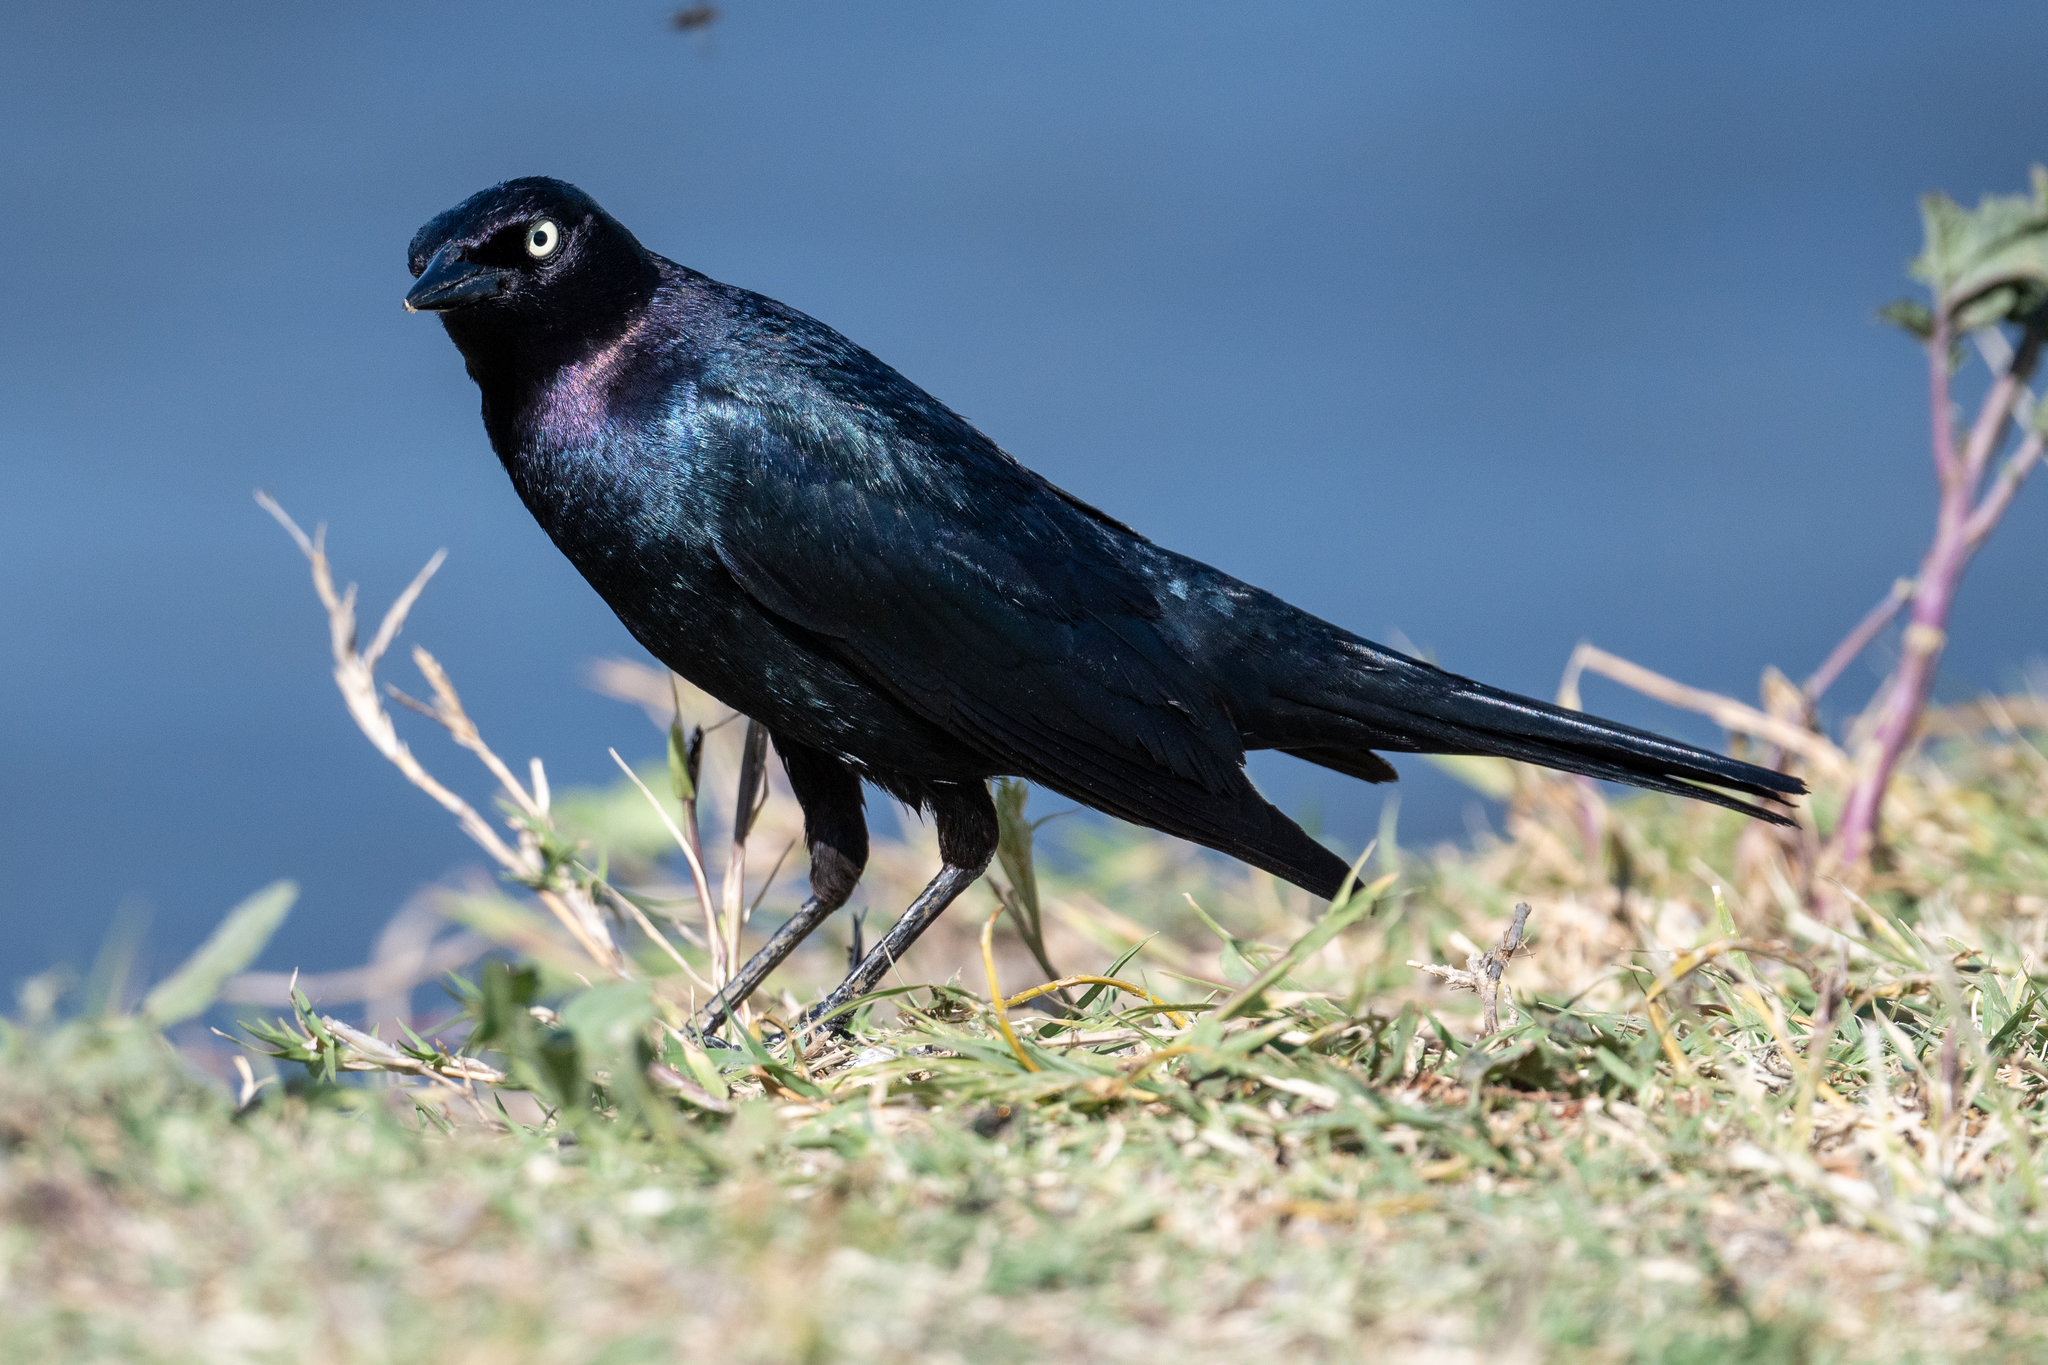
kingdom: Animalia
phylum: Chordata
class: Aves
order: Passeriformes
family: Icteridae
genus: Euphagus
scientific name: Euphagus cyanocephalus
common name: Brewer's blackbird
